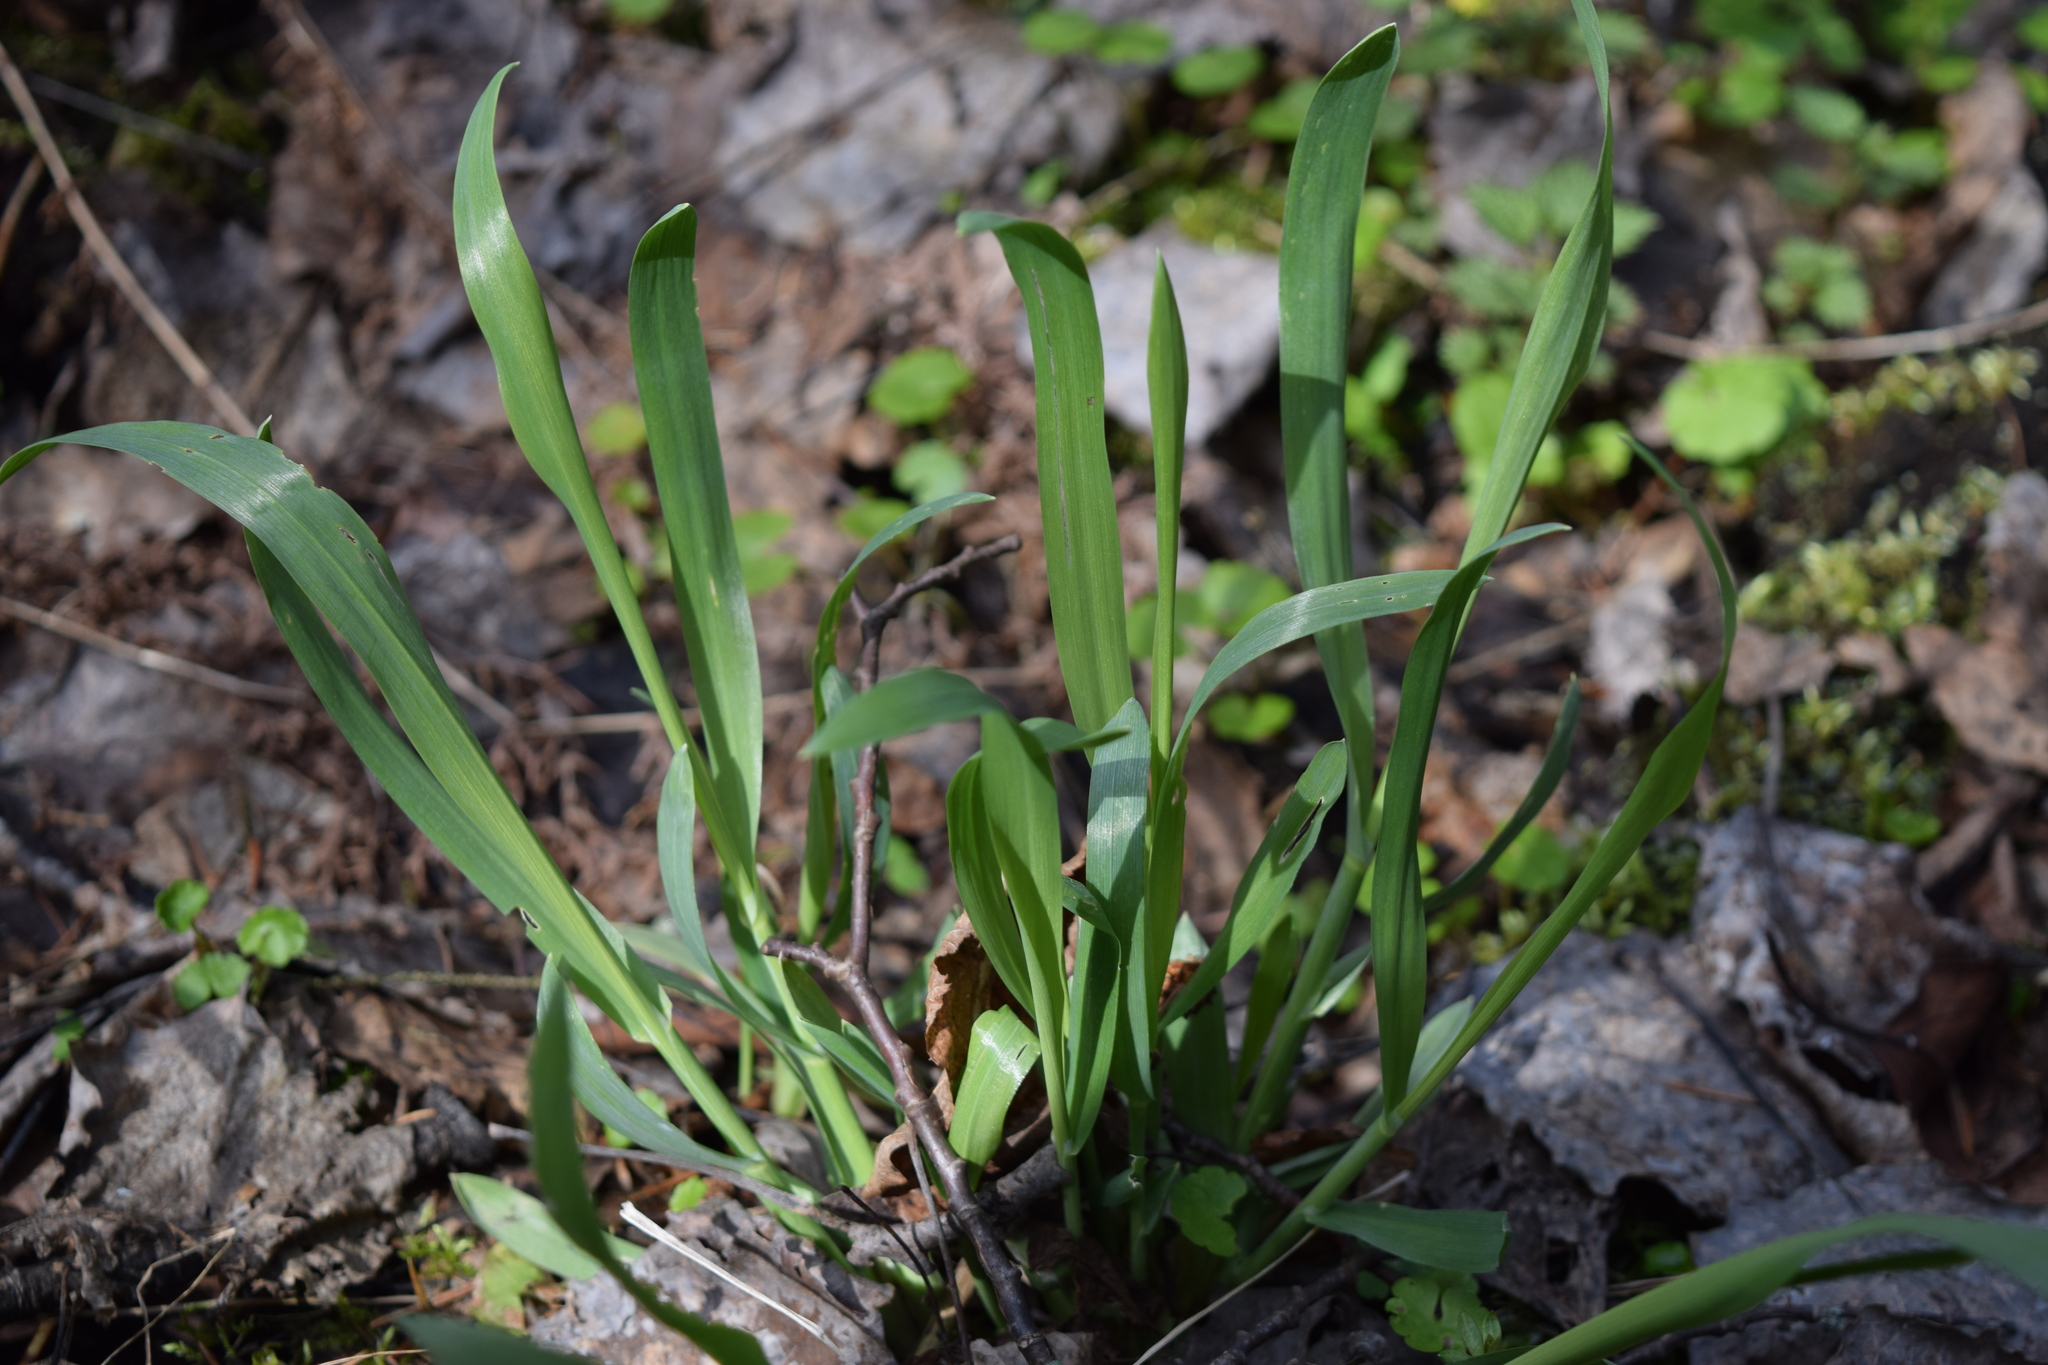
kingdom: Plantae
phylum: Tracheophyta
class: Liliopsida
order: Poales
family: Poaceae
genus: Milium
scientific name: Milium effusum
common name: Wood millet
